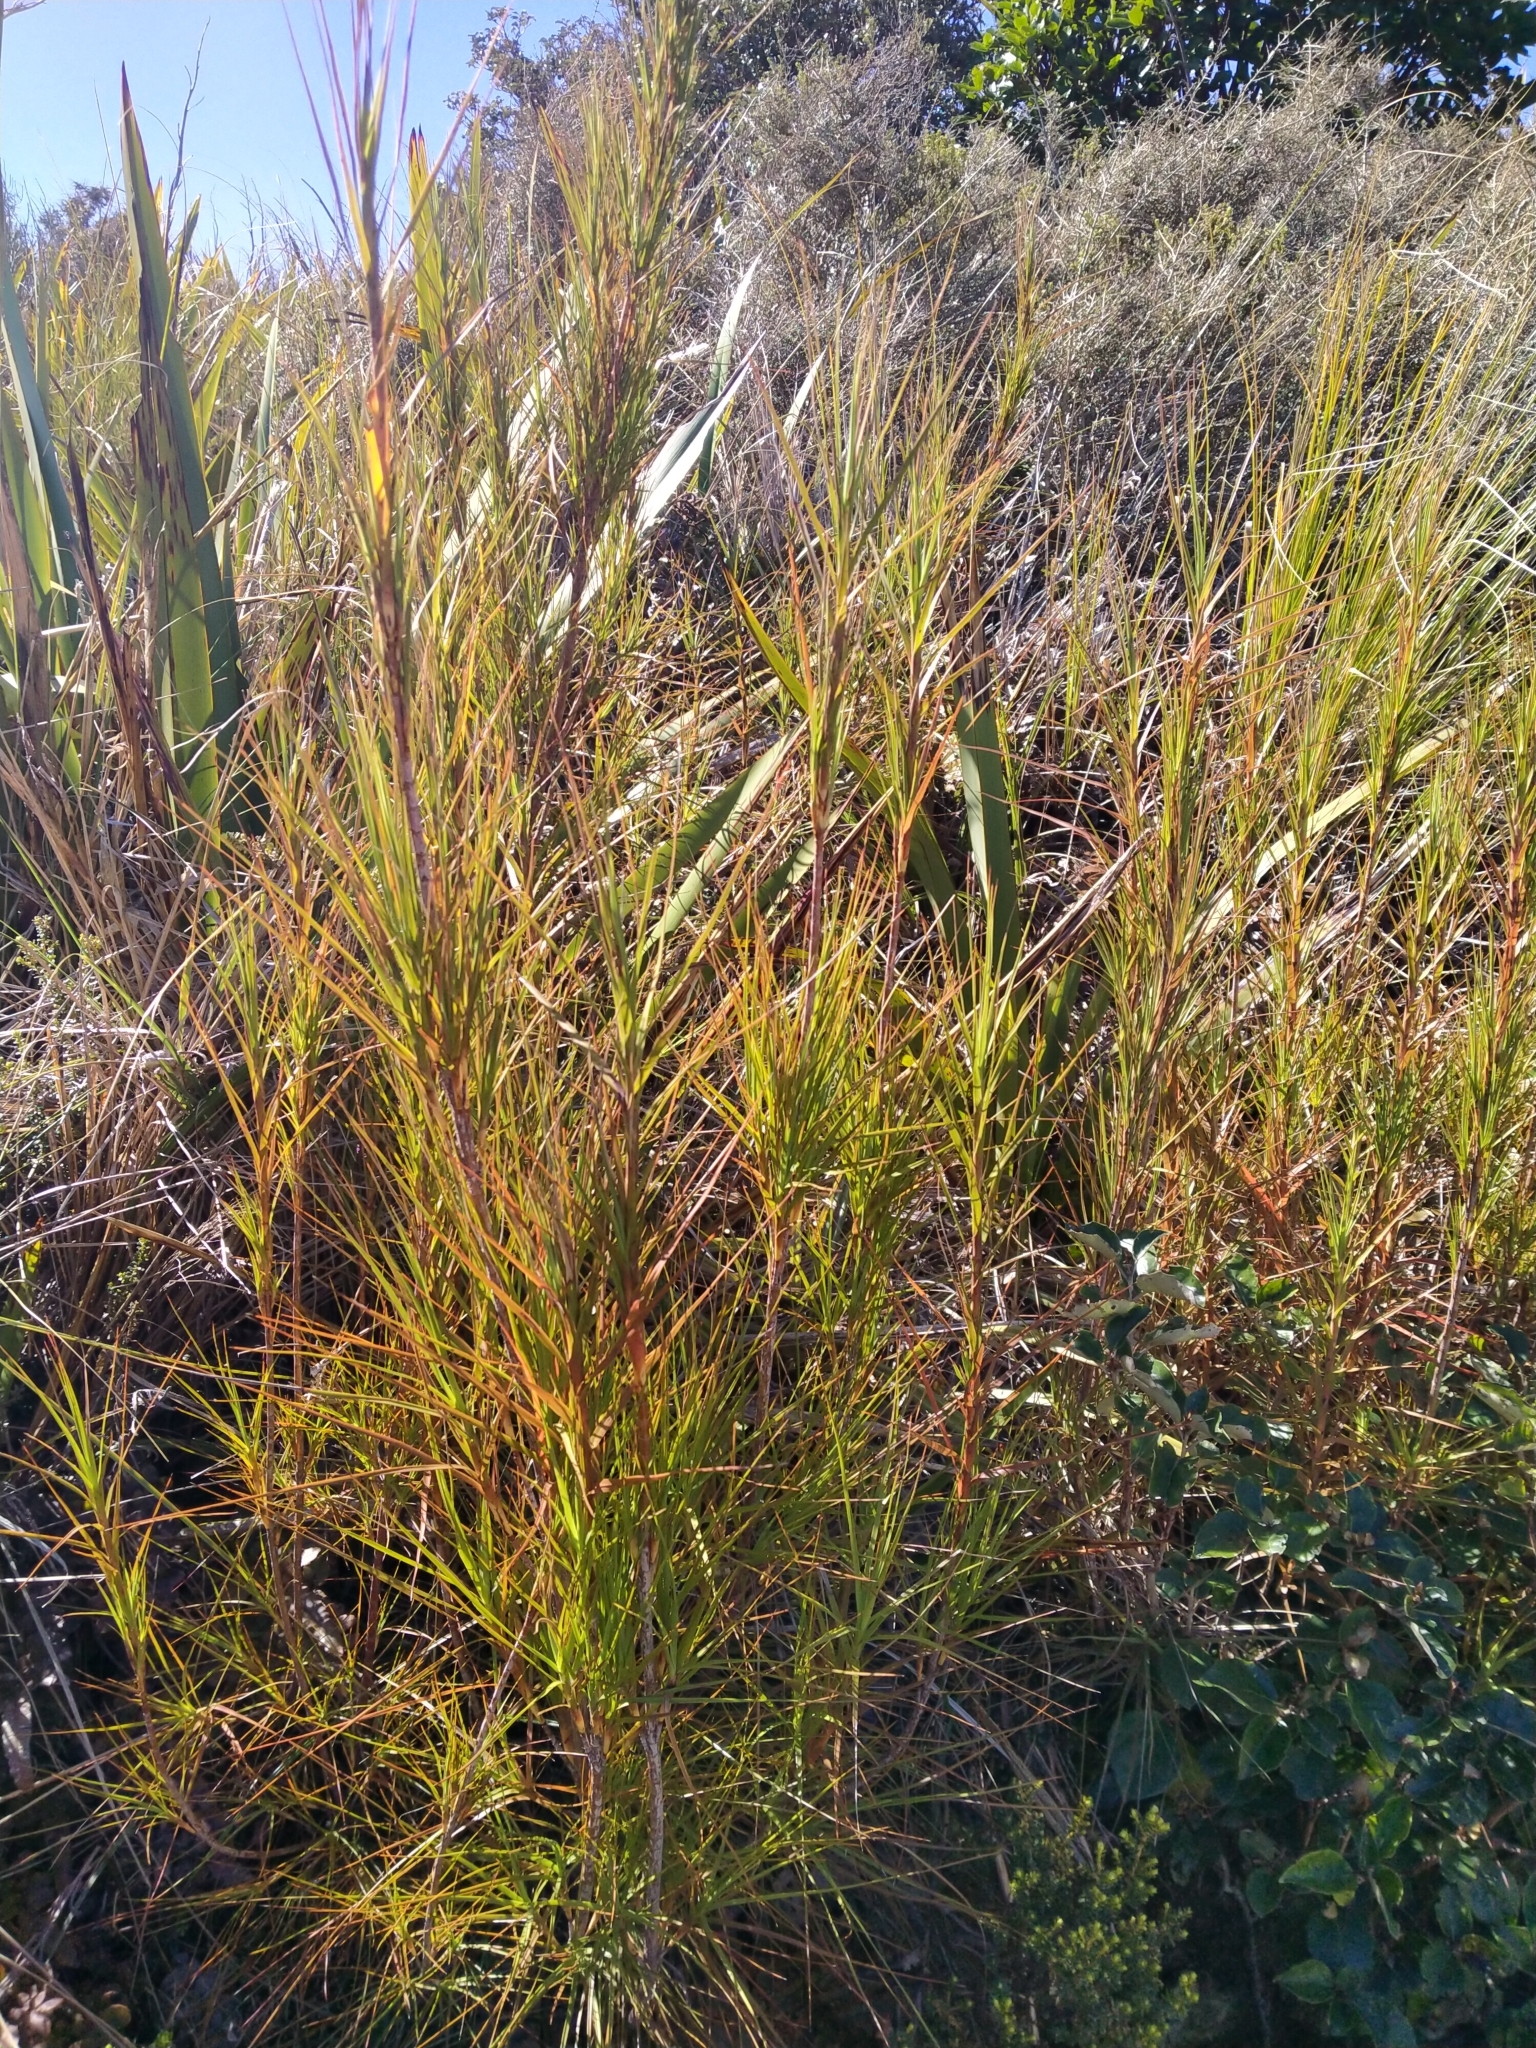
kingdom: Plantae
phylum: Tracheophyta
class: Magnoliopsida
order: Ericales
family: Ericaceae
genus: Dracophyllum
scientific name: Dracophyllum longifolium
